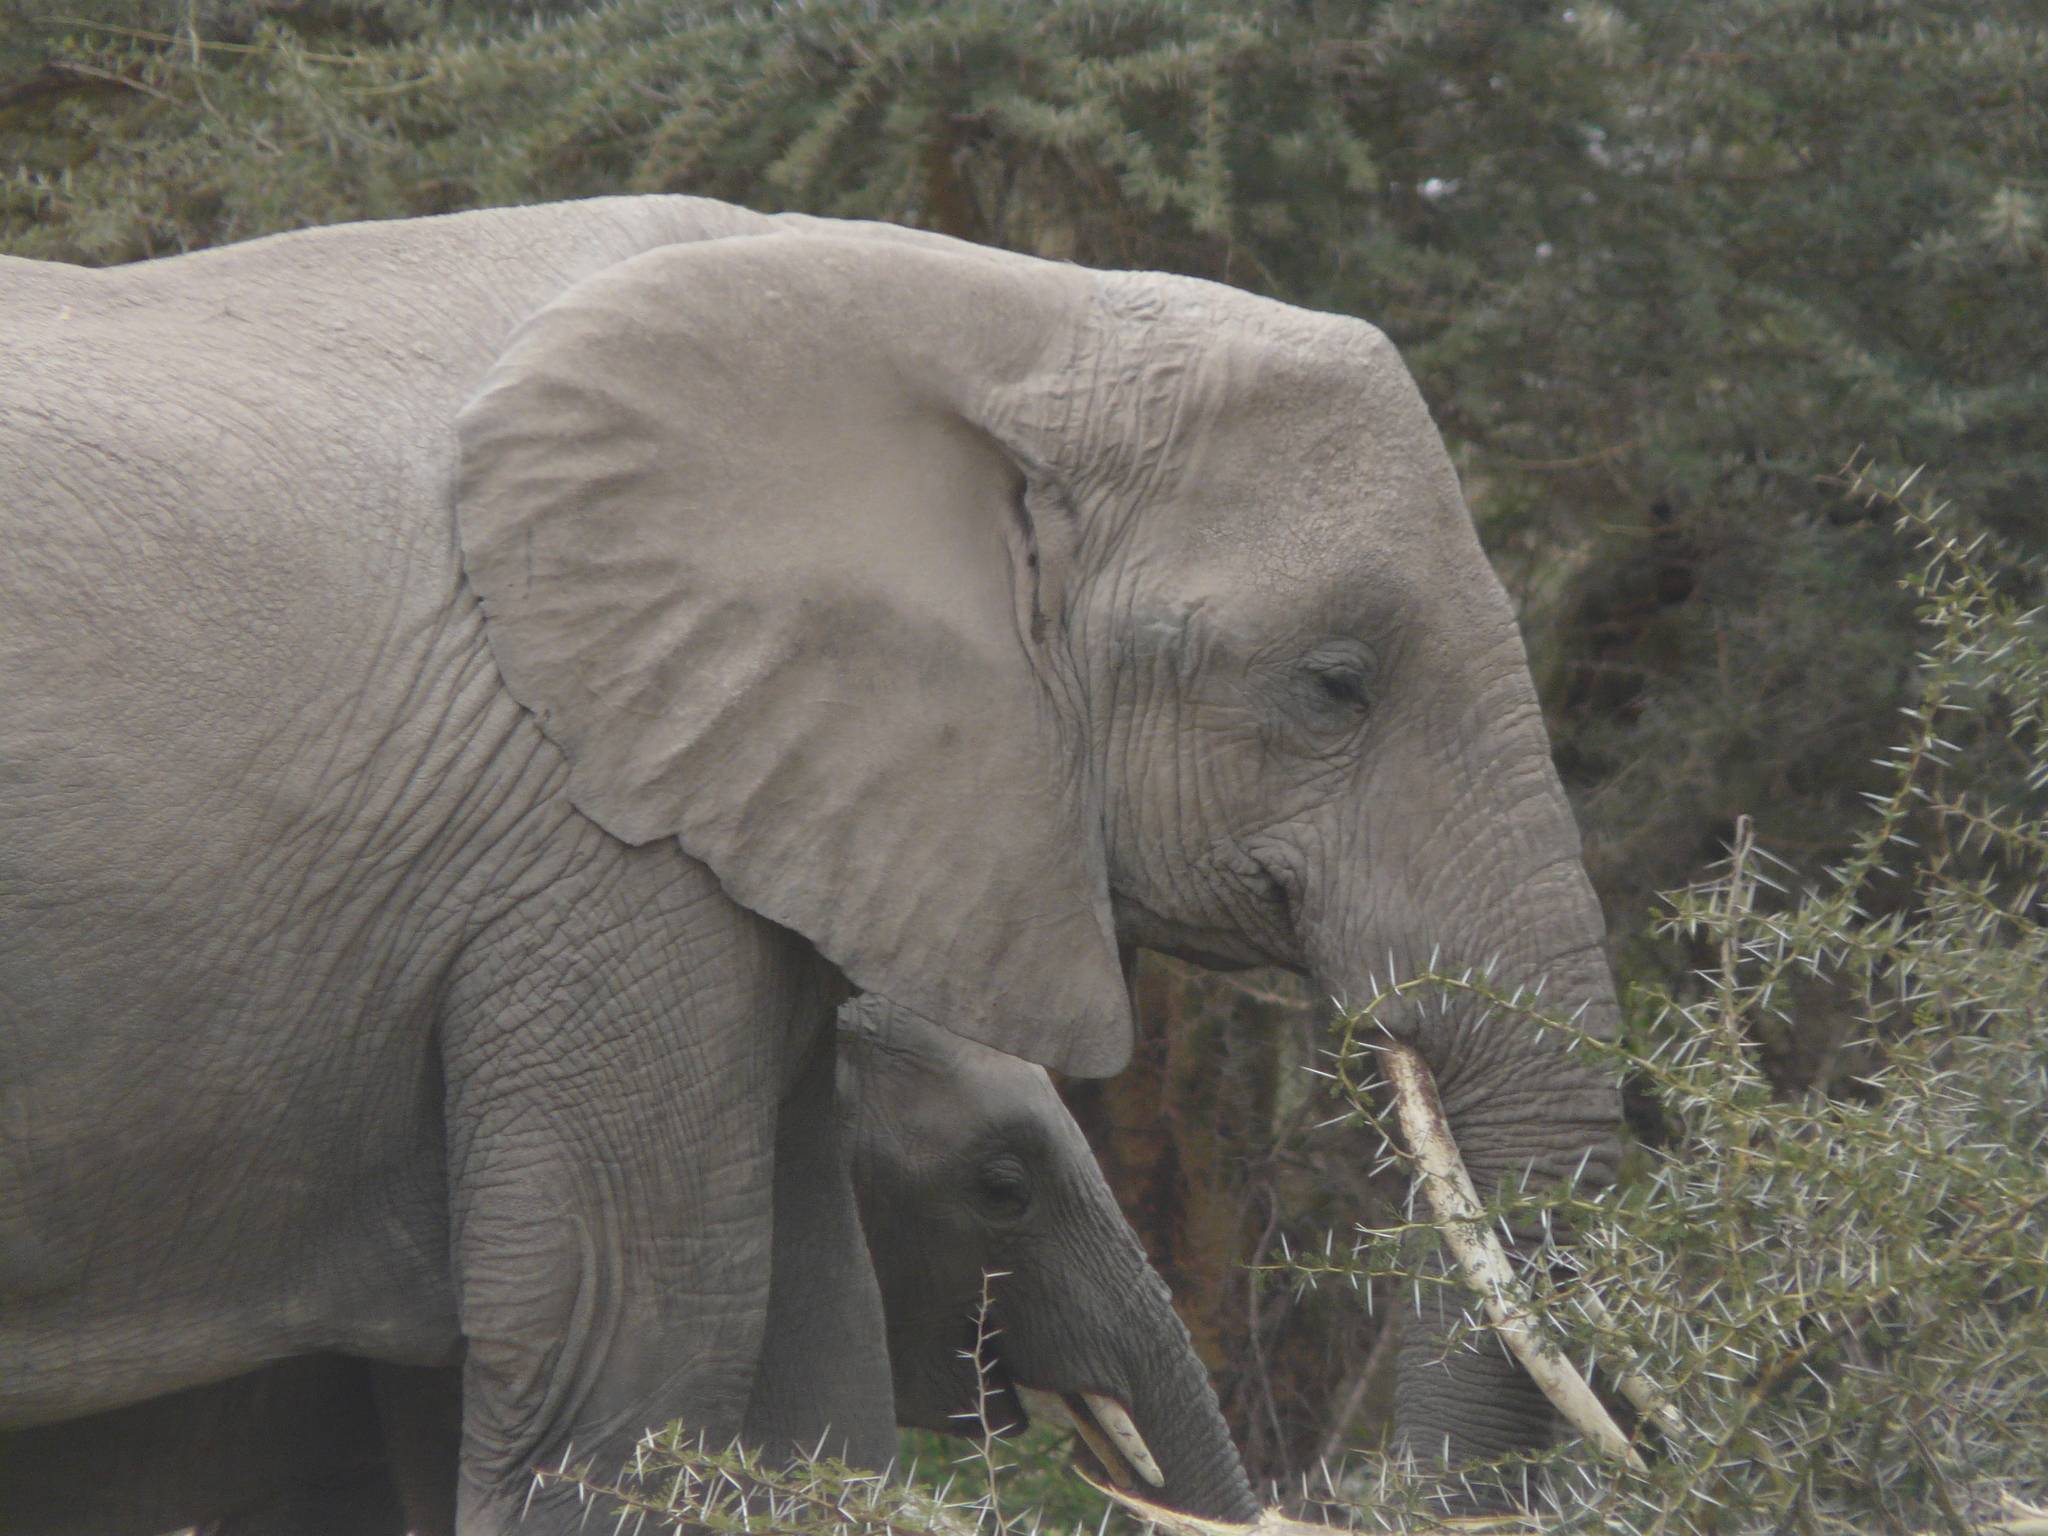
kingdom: Animalia
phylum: Chordata
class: Mammalia
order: Proboscidea
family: Elephantidae
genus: Loxodonta
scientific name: Loxodonta africana
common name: African elephant
